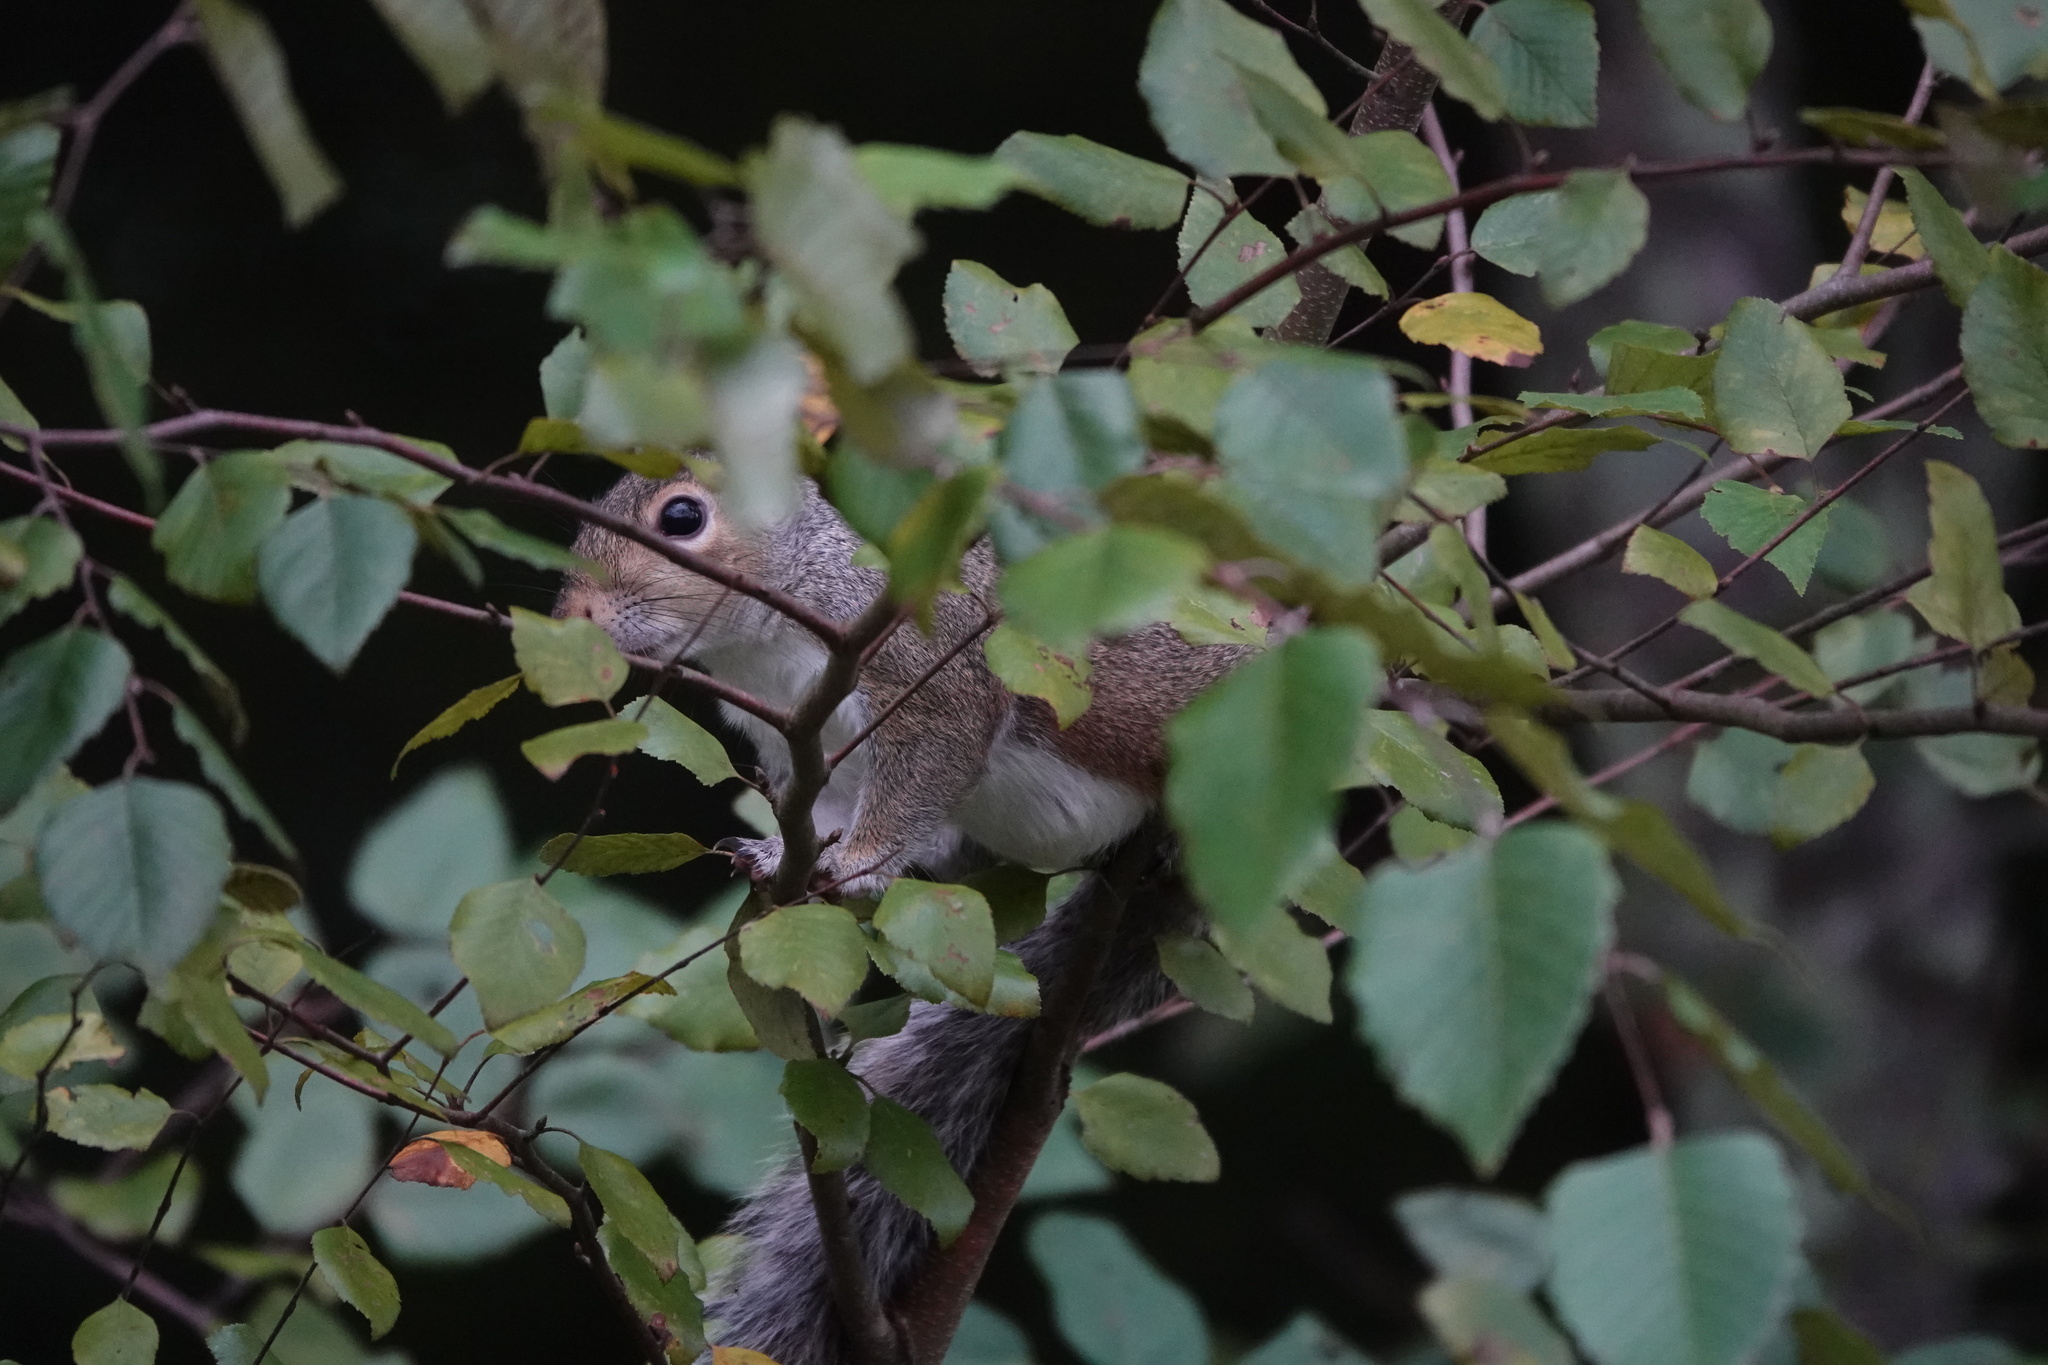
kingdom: Animalia
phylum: Chordata
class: Mammalia
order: Rodentia
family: Sciuridae
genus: Sciurus
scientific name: Sciurus carolinensis
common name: Eastern gray squirrel
